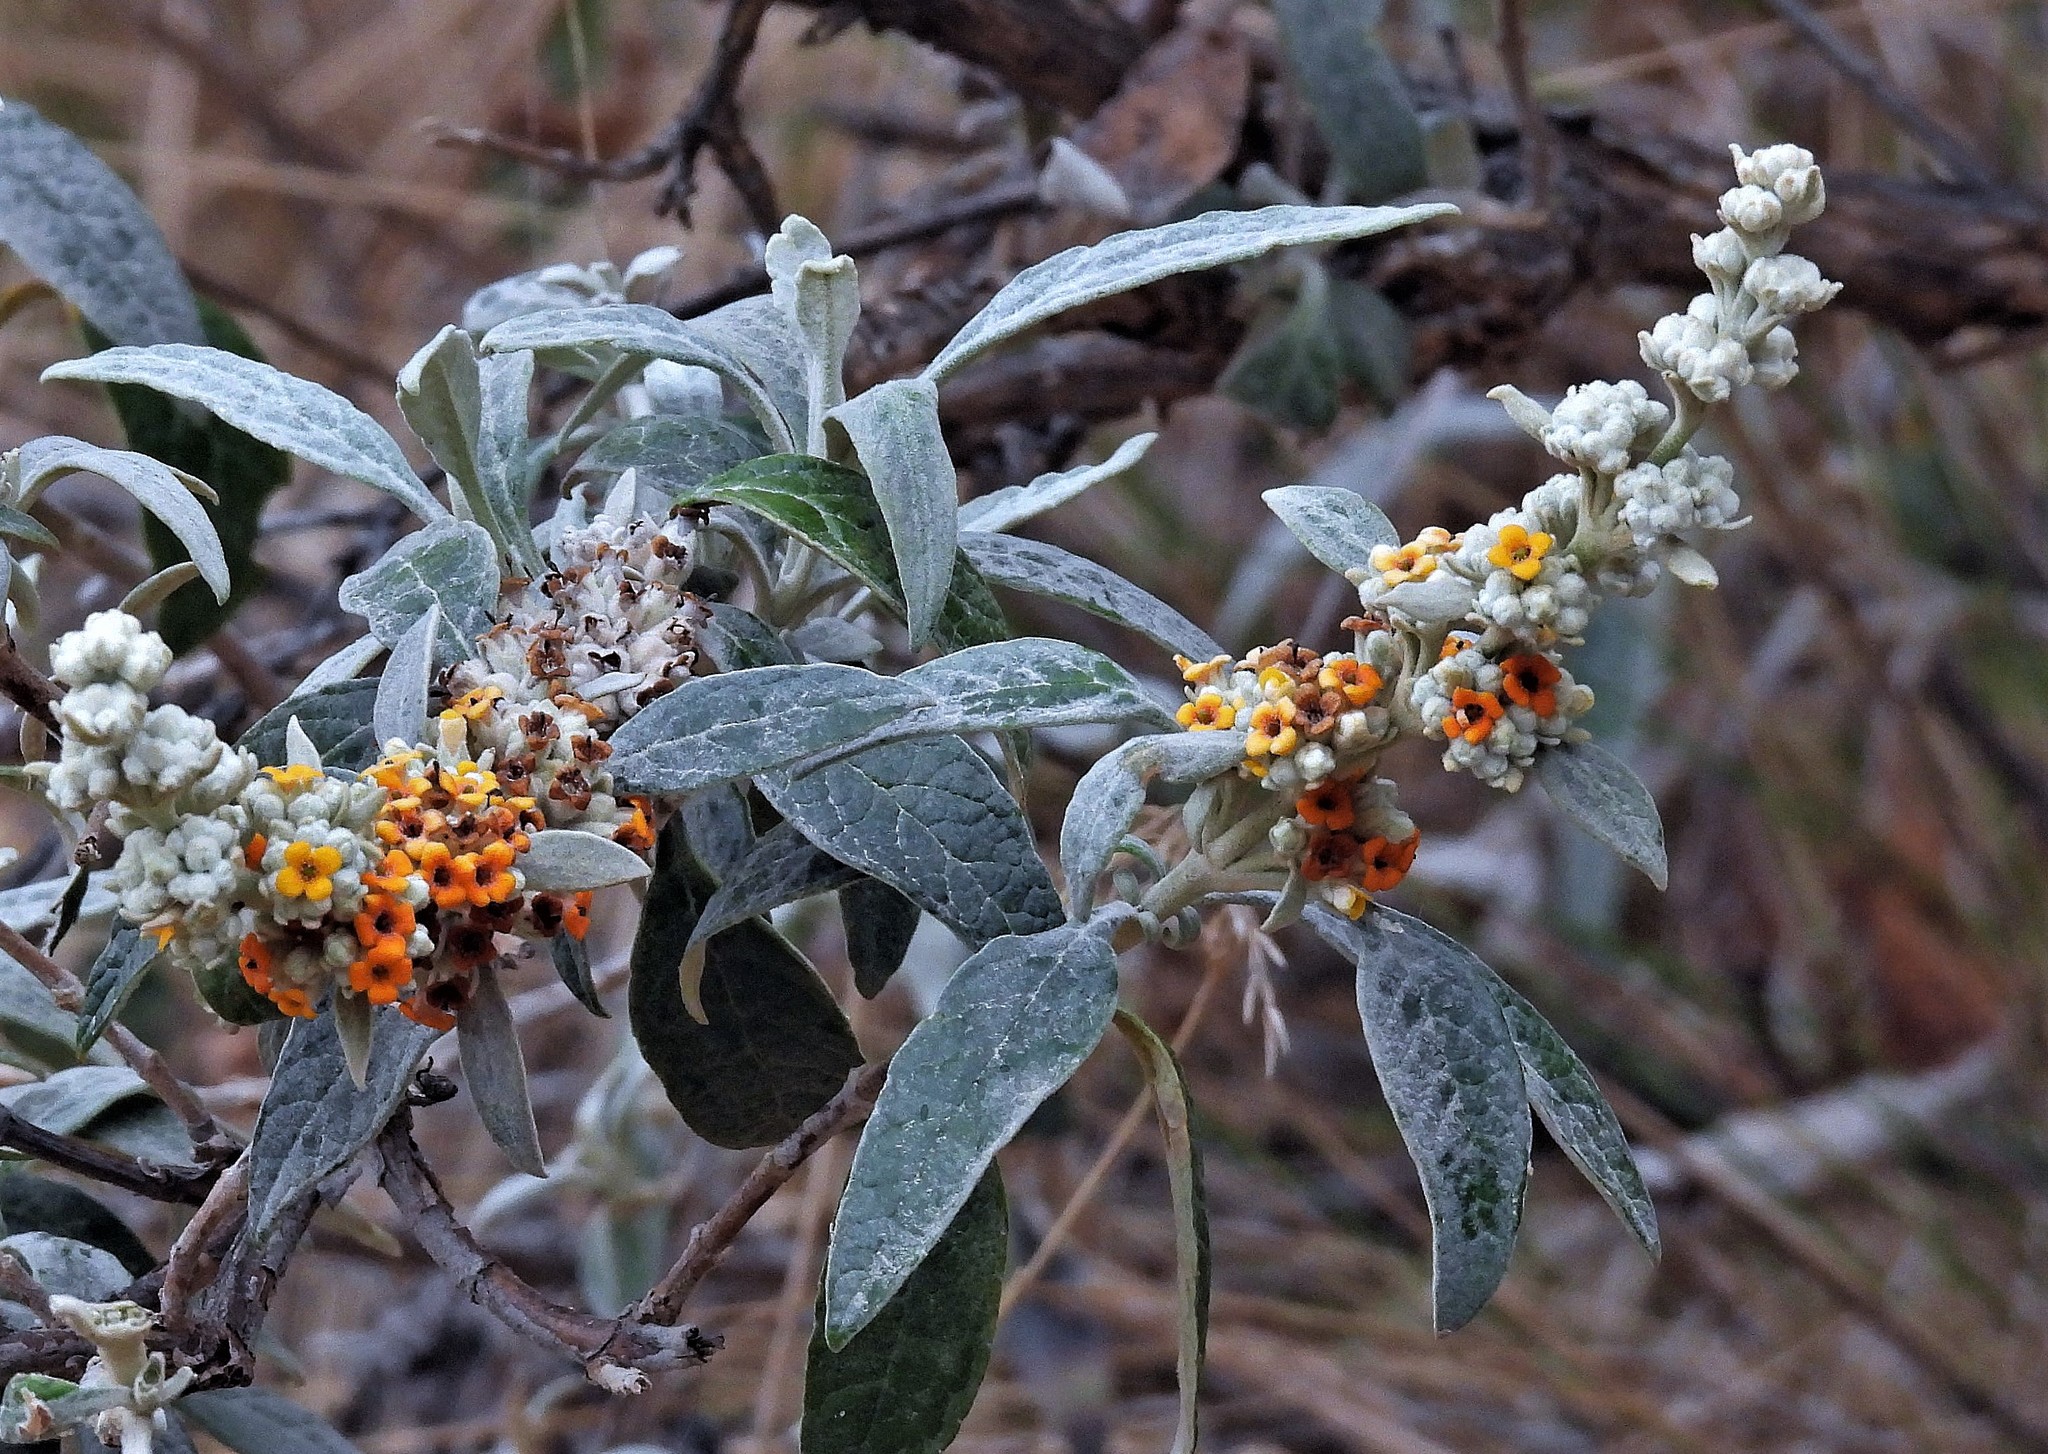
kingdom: Plantae
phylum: Tracheophyta
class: Magnoliopsida
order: Lamiales
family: Scrophulariaceae
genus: Buddleja
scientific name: Buddleja tucumanensis
